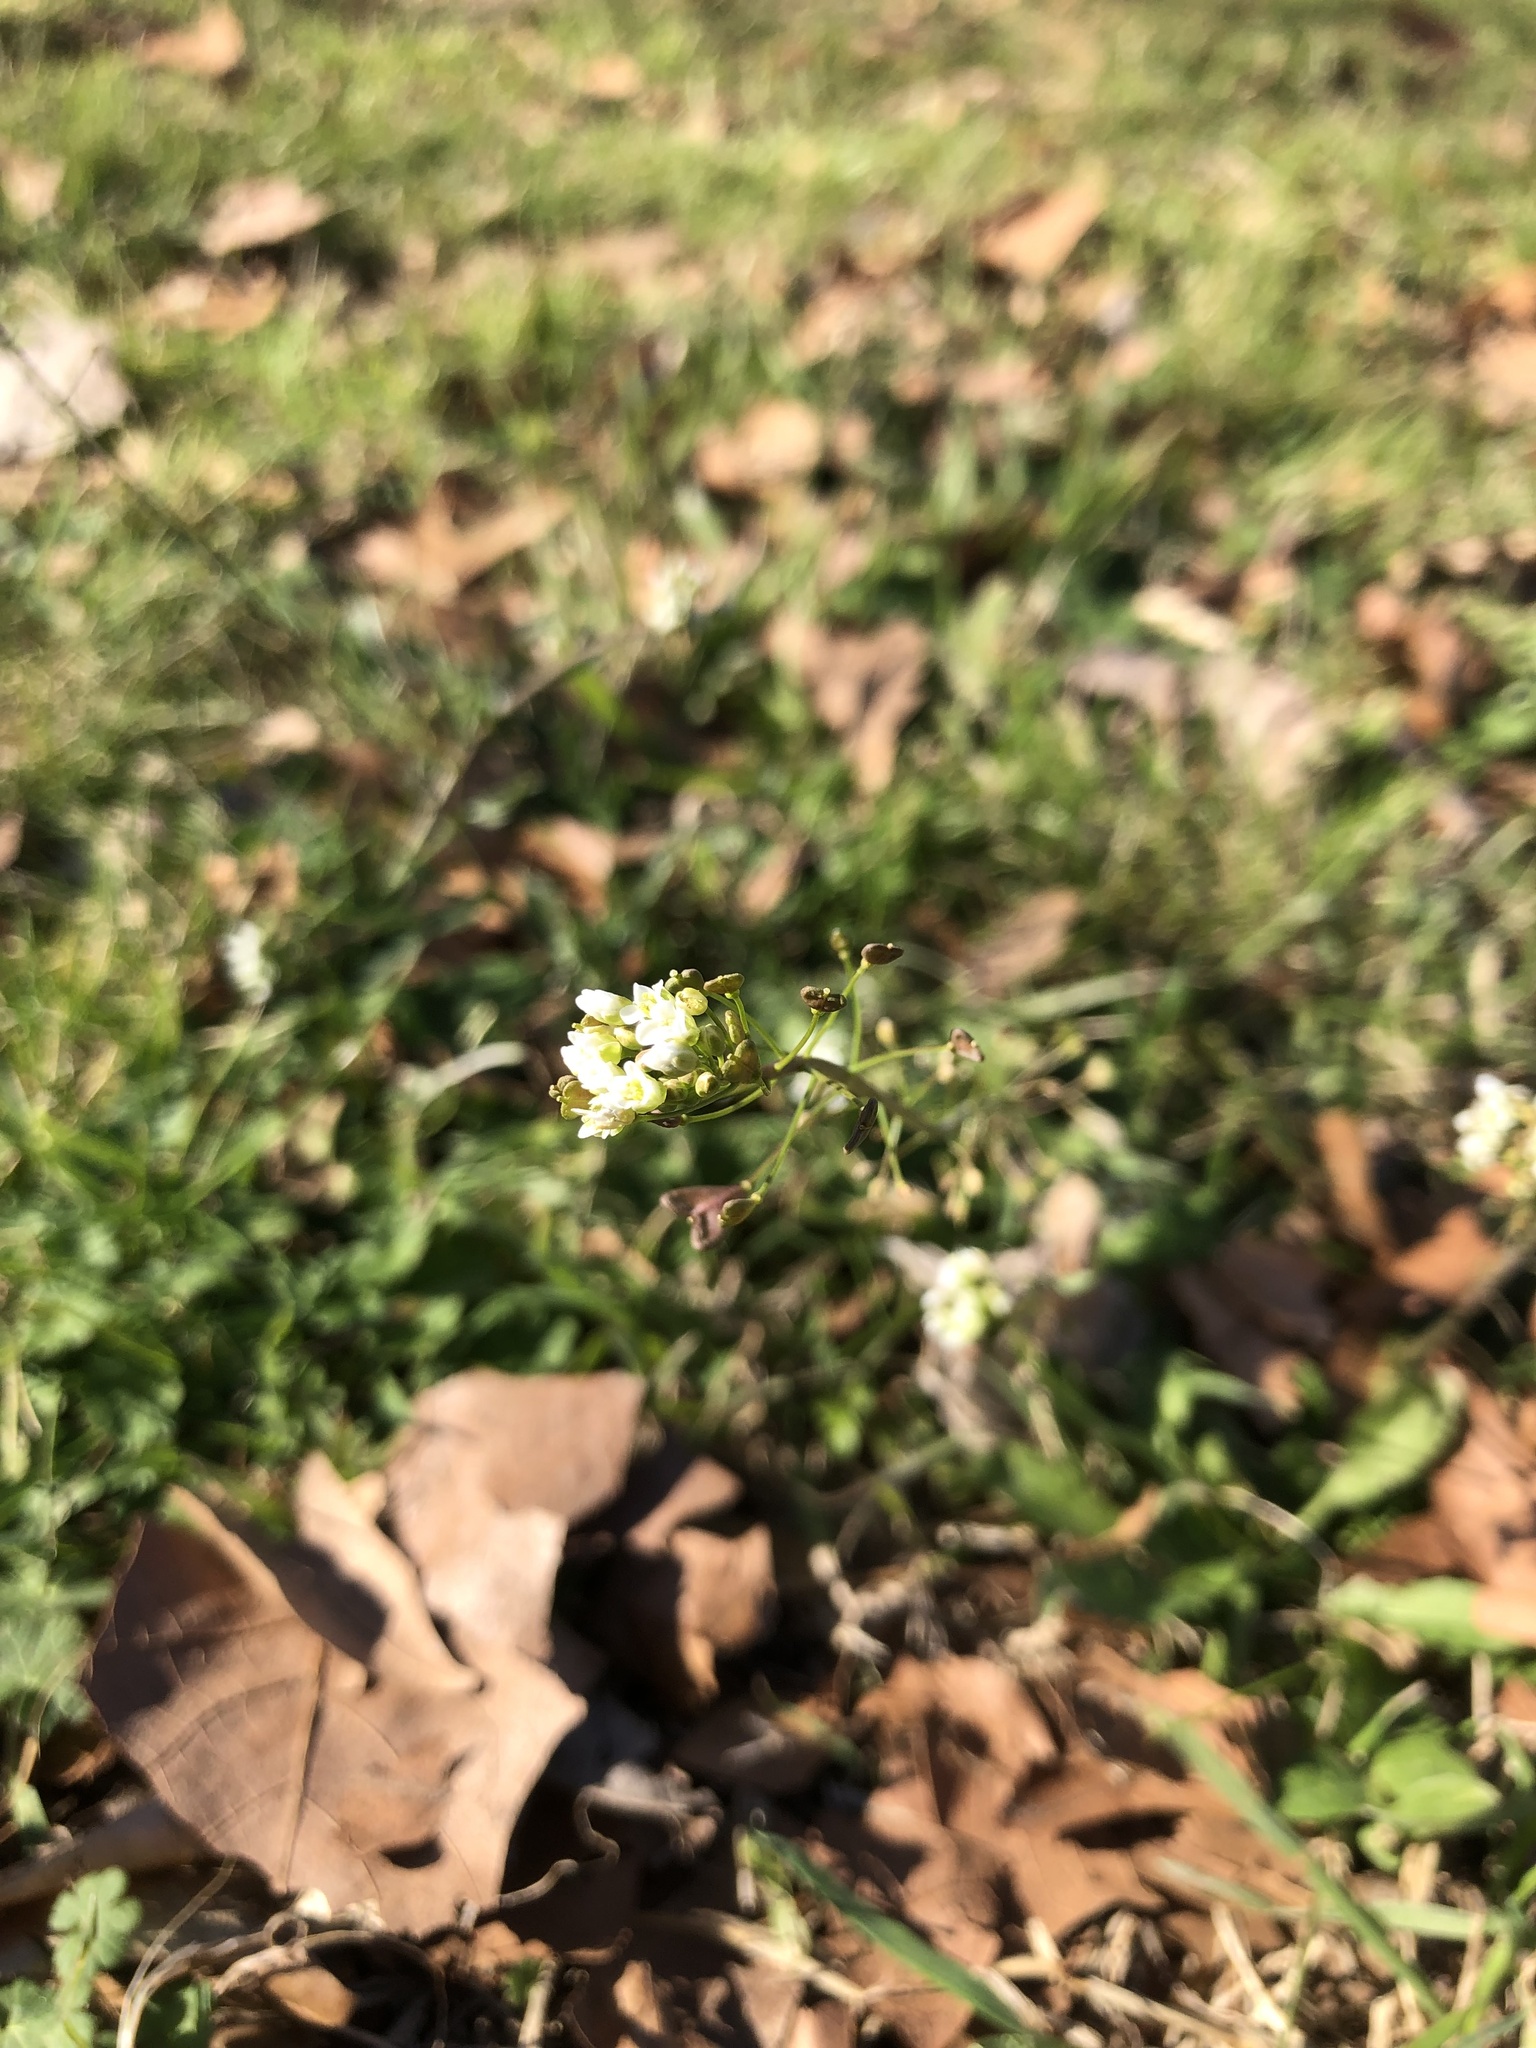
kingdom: Plantae
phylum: Tracheophyta
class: Magnoliopsida
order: Brassicales
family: Brassicaceae
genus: Capsella
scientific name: Capsella bursa-pastoris
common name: Shepherd's purse
